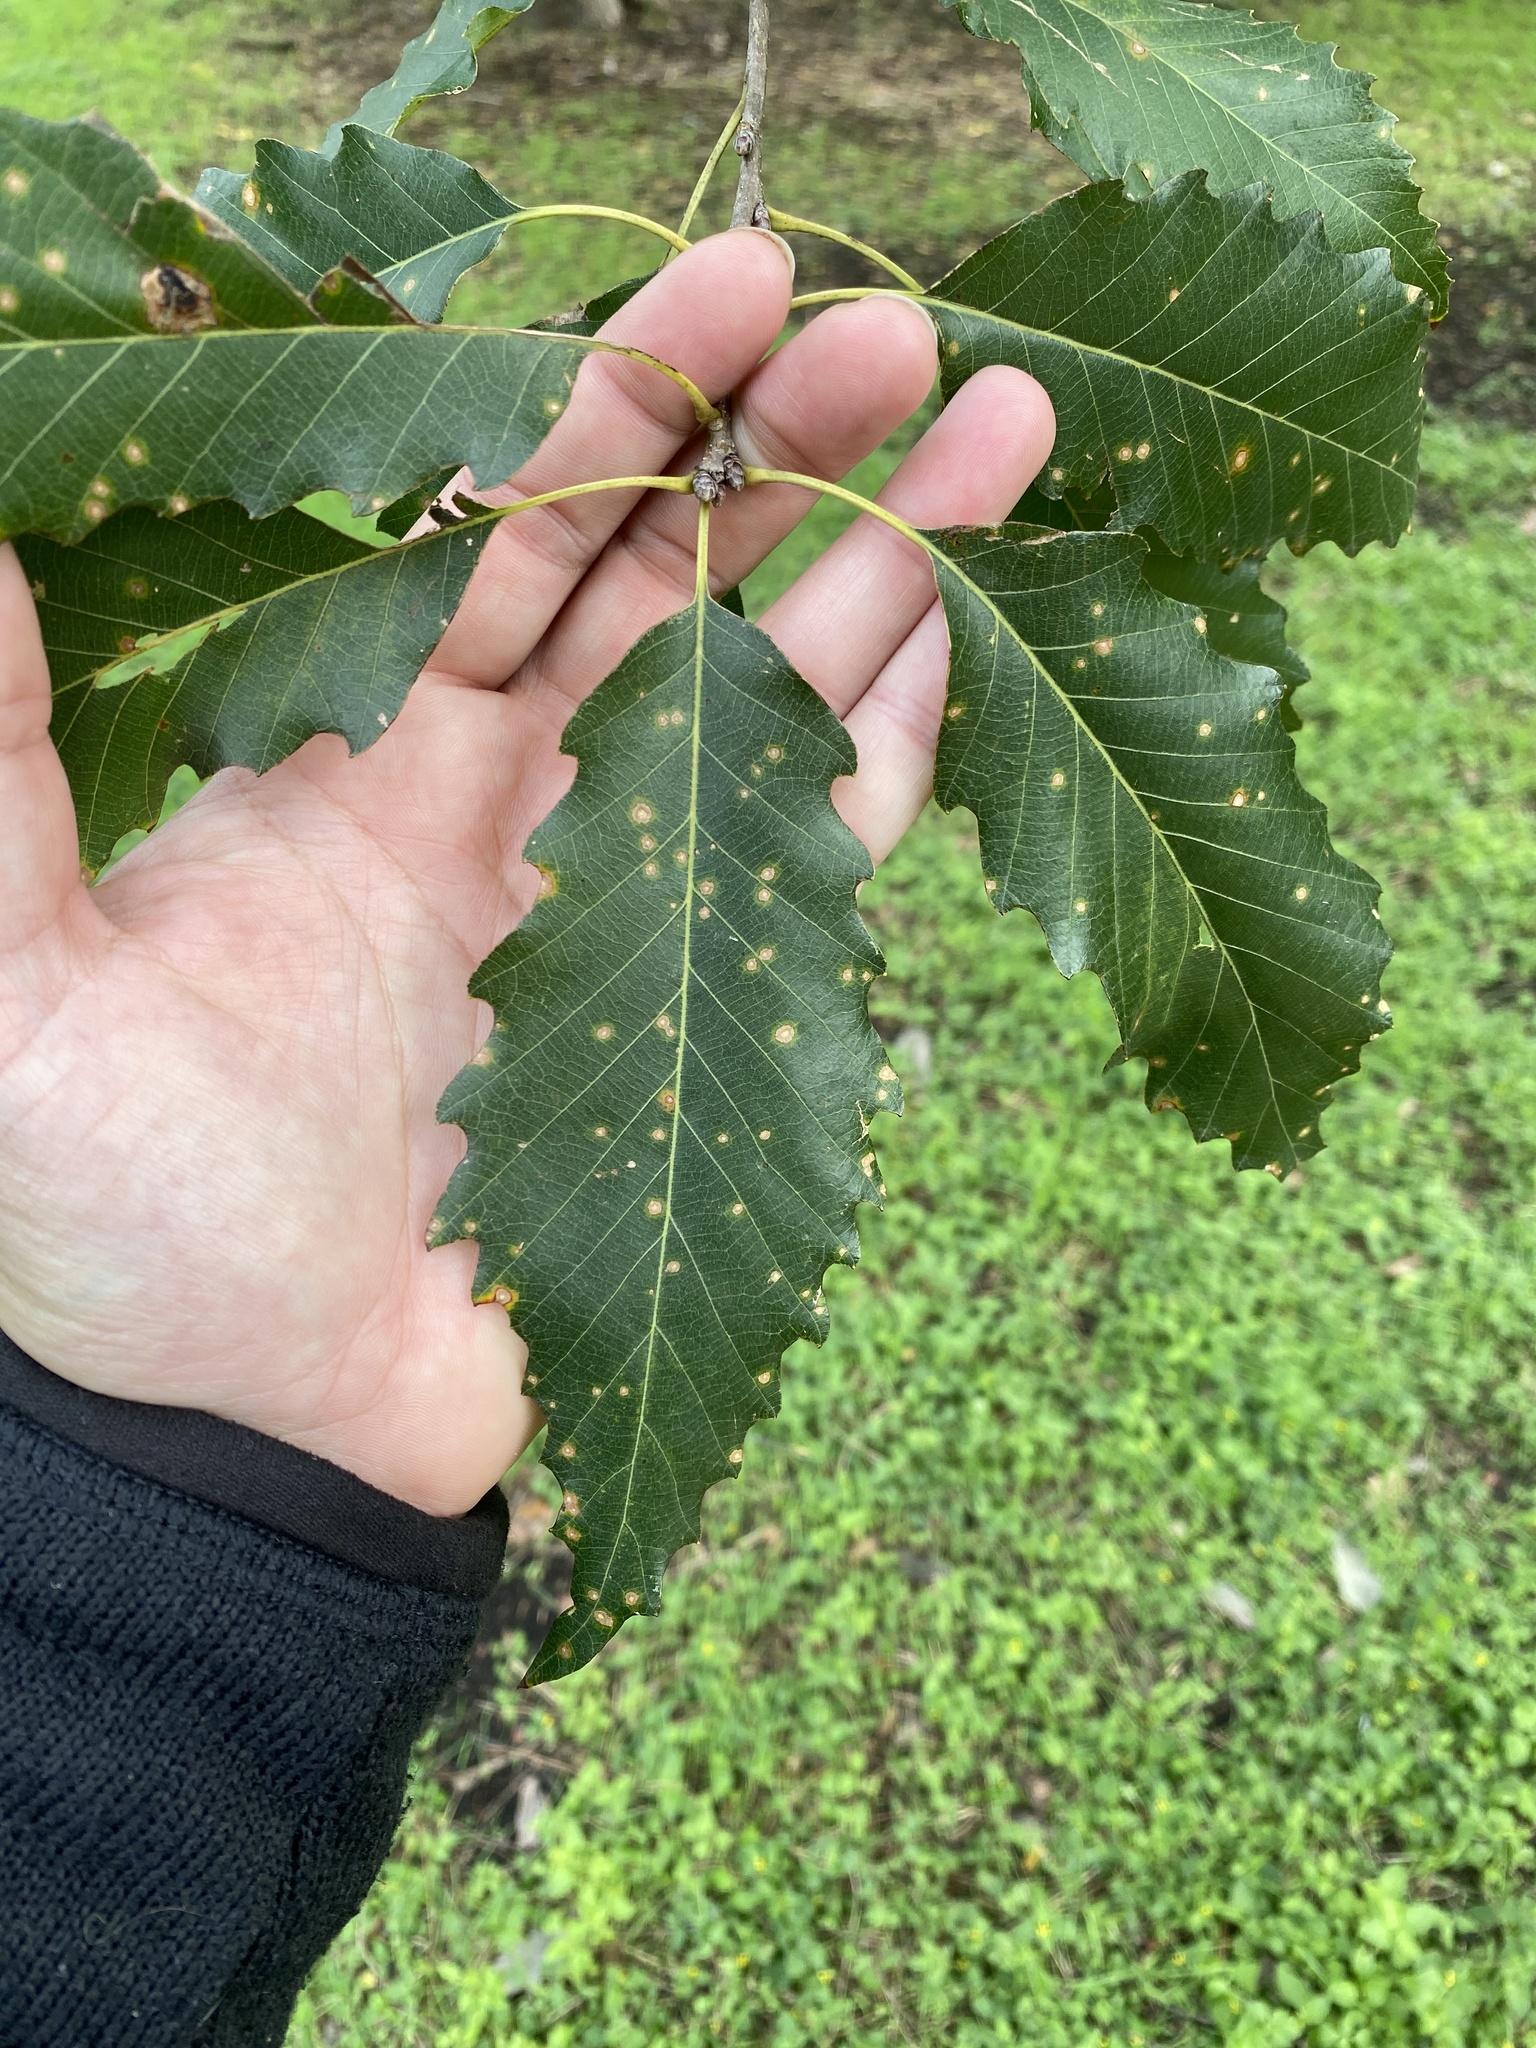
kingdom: Plantae
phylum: Tracheophyta
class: Magnoliopsida
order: Fagales
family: Fagaceae
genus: Quercus
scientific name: Quercus muehlenbergii
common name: Chinkapin oak
